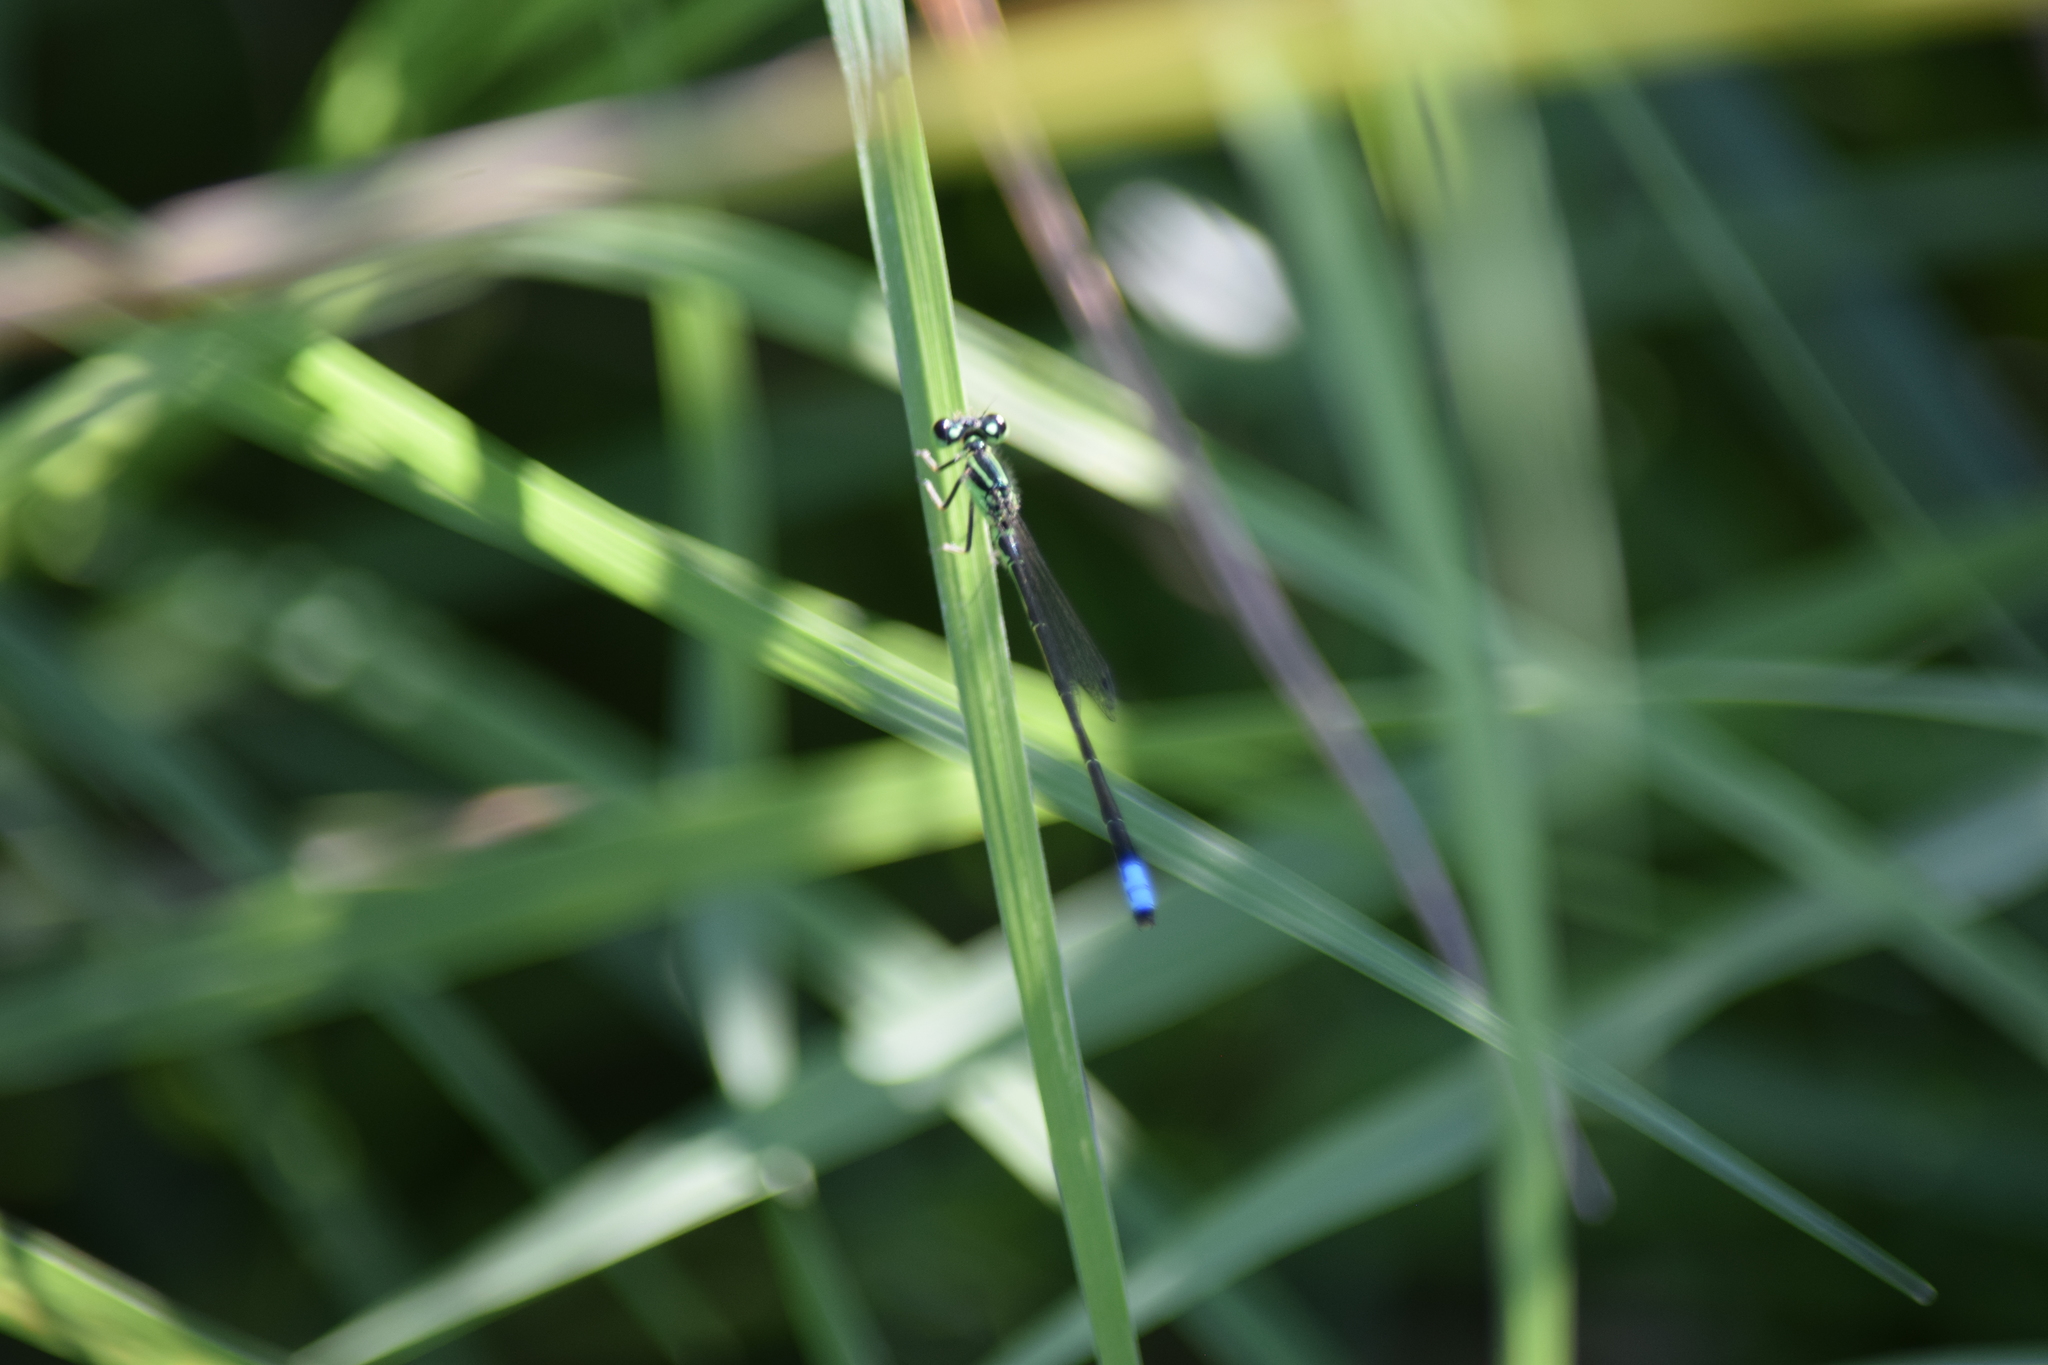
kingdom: Animalia
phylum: Arthropoda
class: Insecta
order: Odonata
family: Coenagrionidae
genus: Ischnura
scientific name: Ischnura verticalis
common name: Eastern forktail
